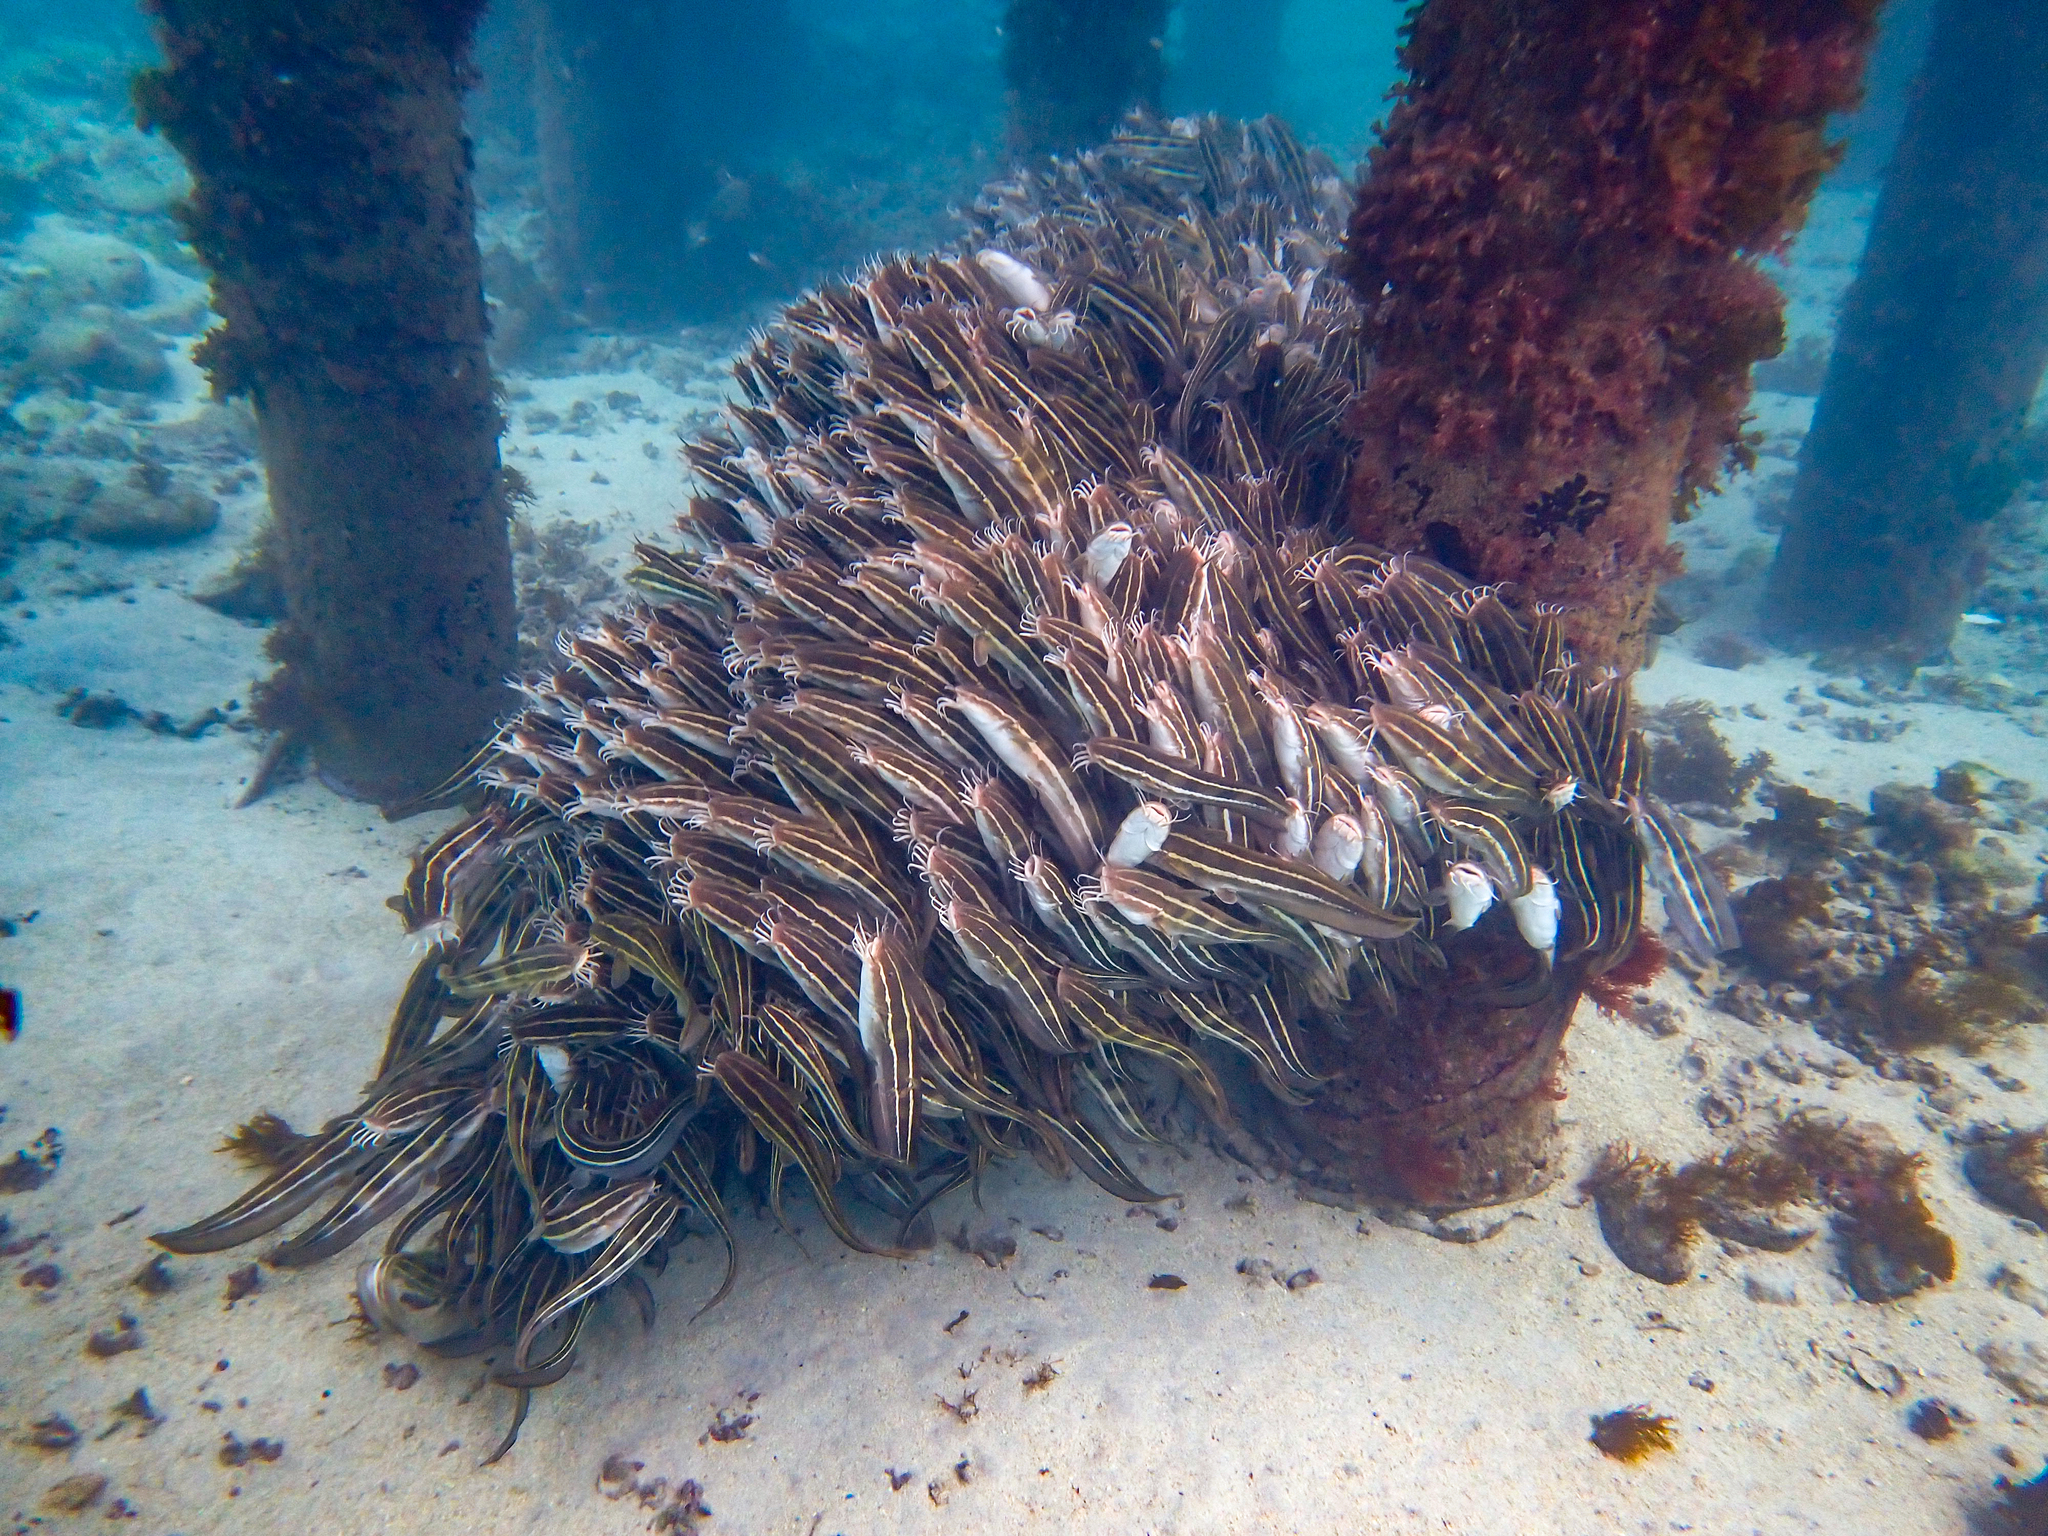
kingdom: Animalia
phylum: Chordata
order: Siluriformes
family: Plotosidae
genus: Plotosus
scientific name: Plotosus lineatus
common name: Striped eel catfish
